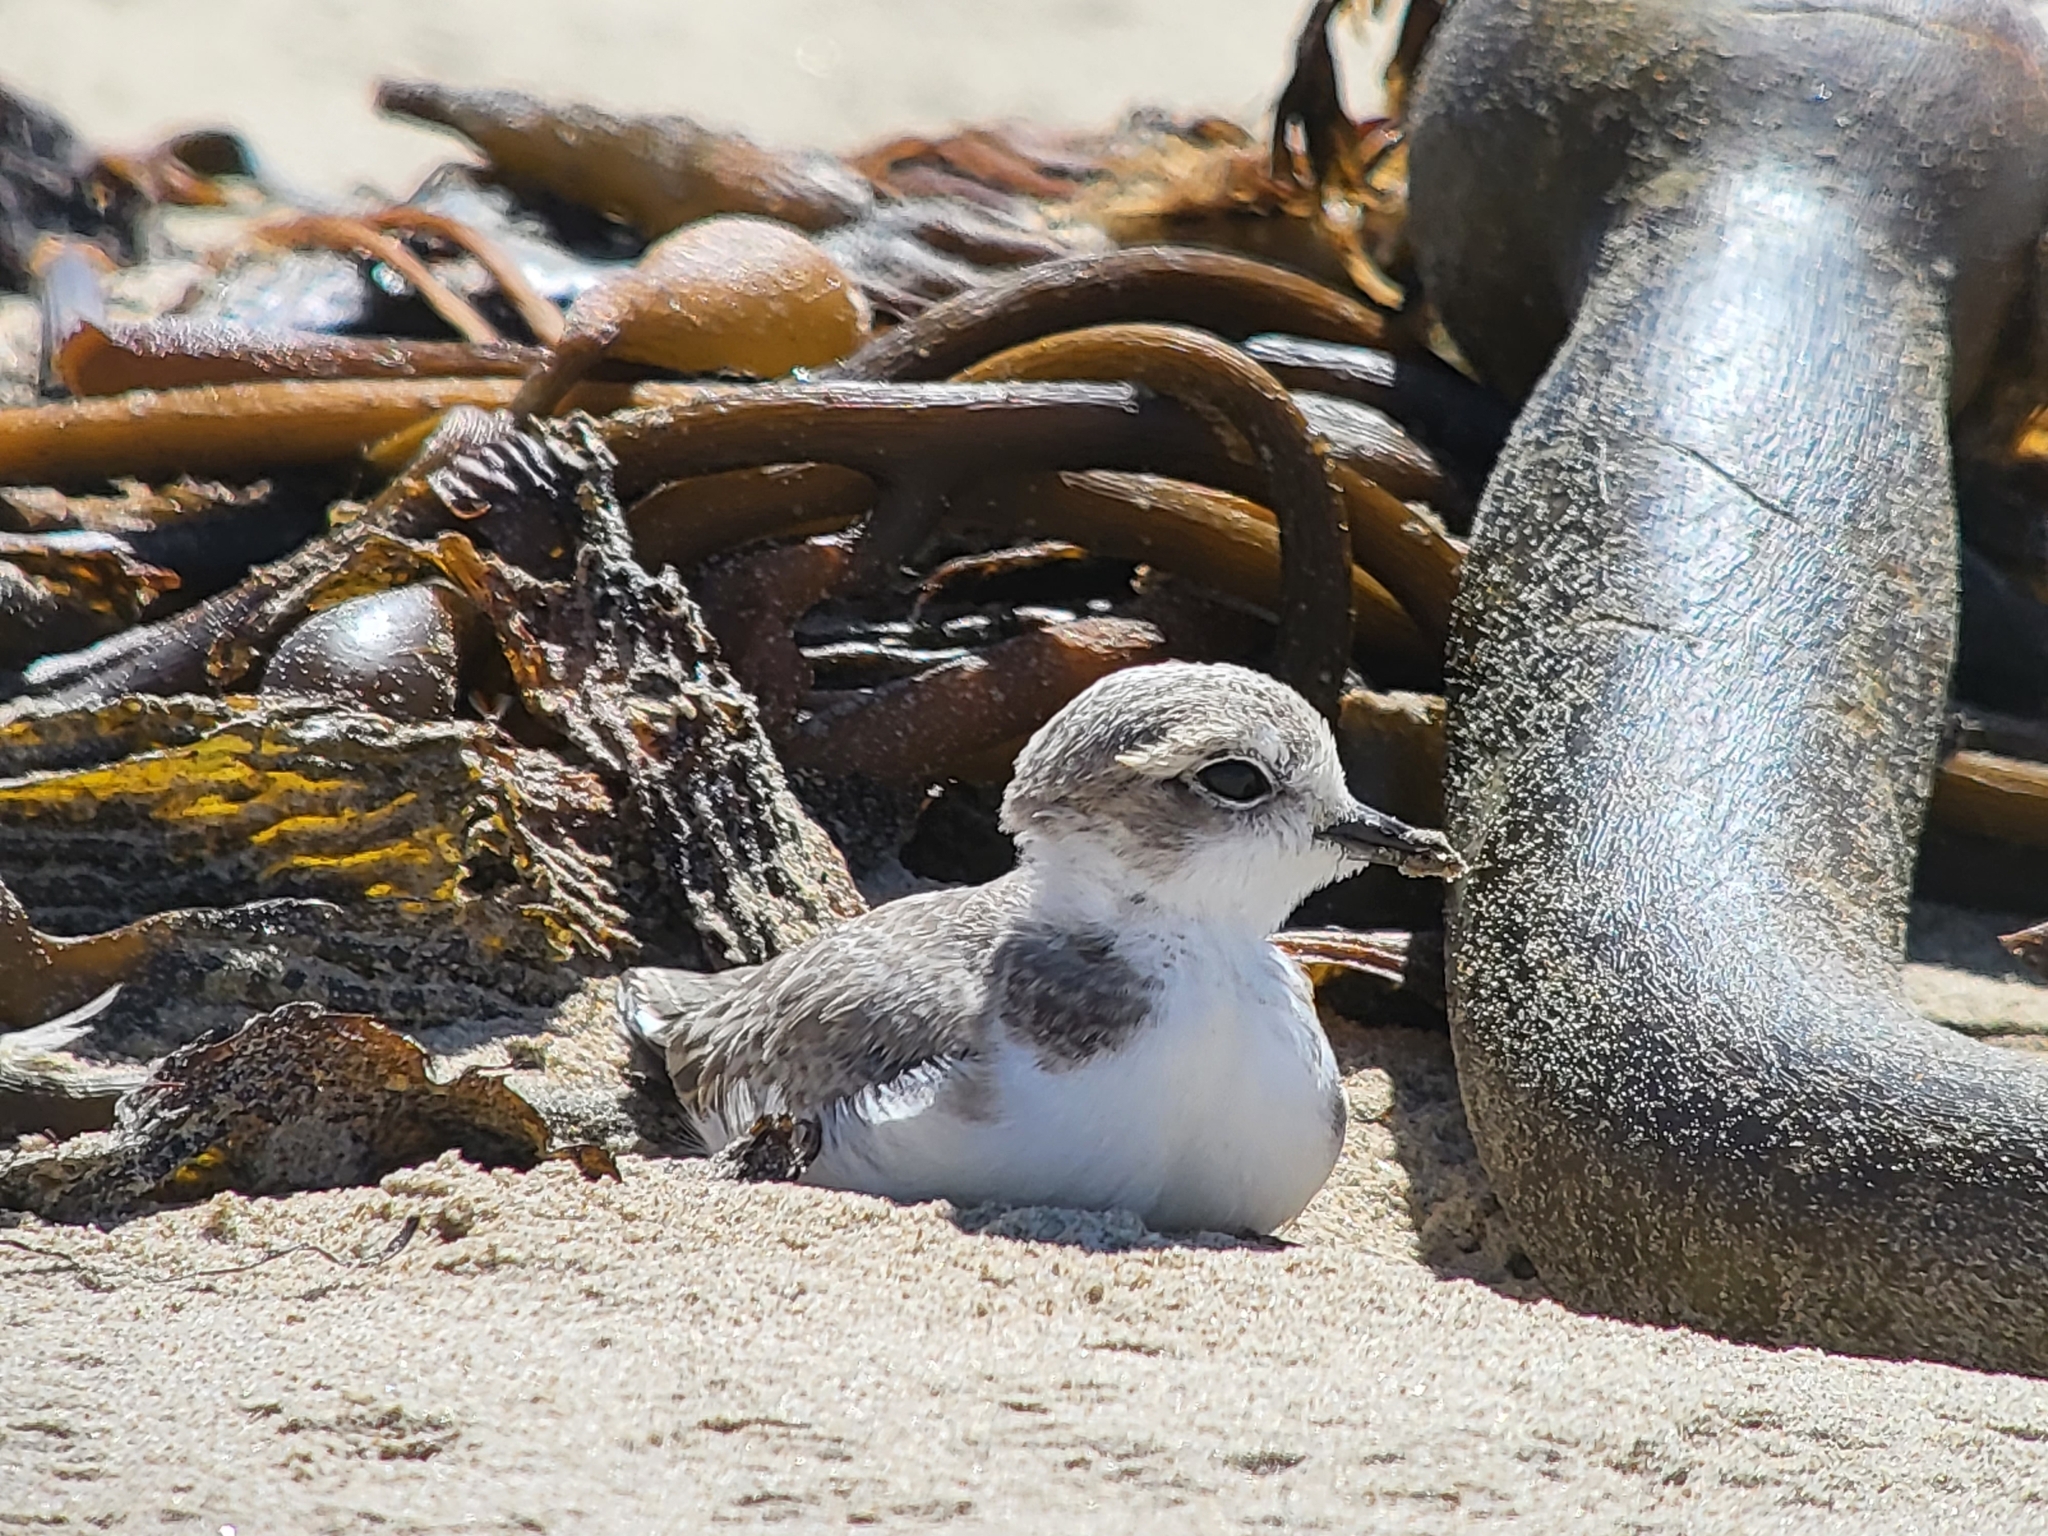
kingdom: Animalia
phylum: Chordata
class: Aves
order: Charadriiformes
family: Charadriidae
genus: Anarhynchus
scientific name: Anarhynchus
